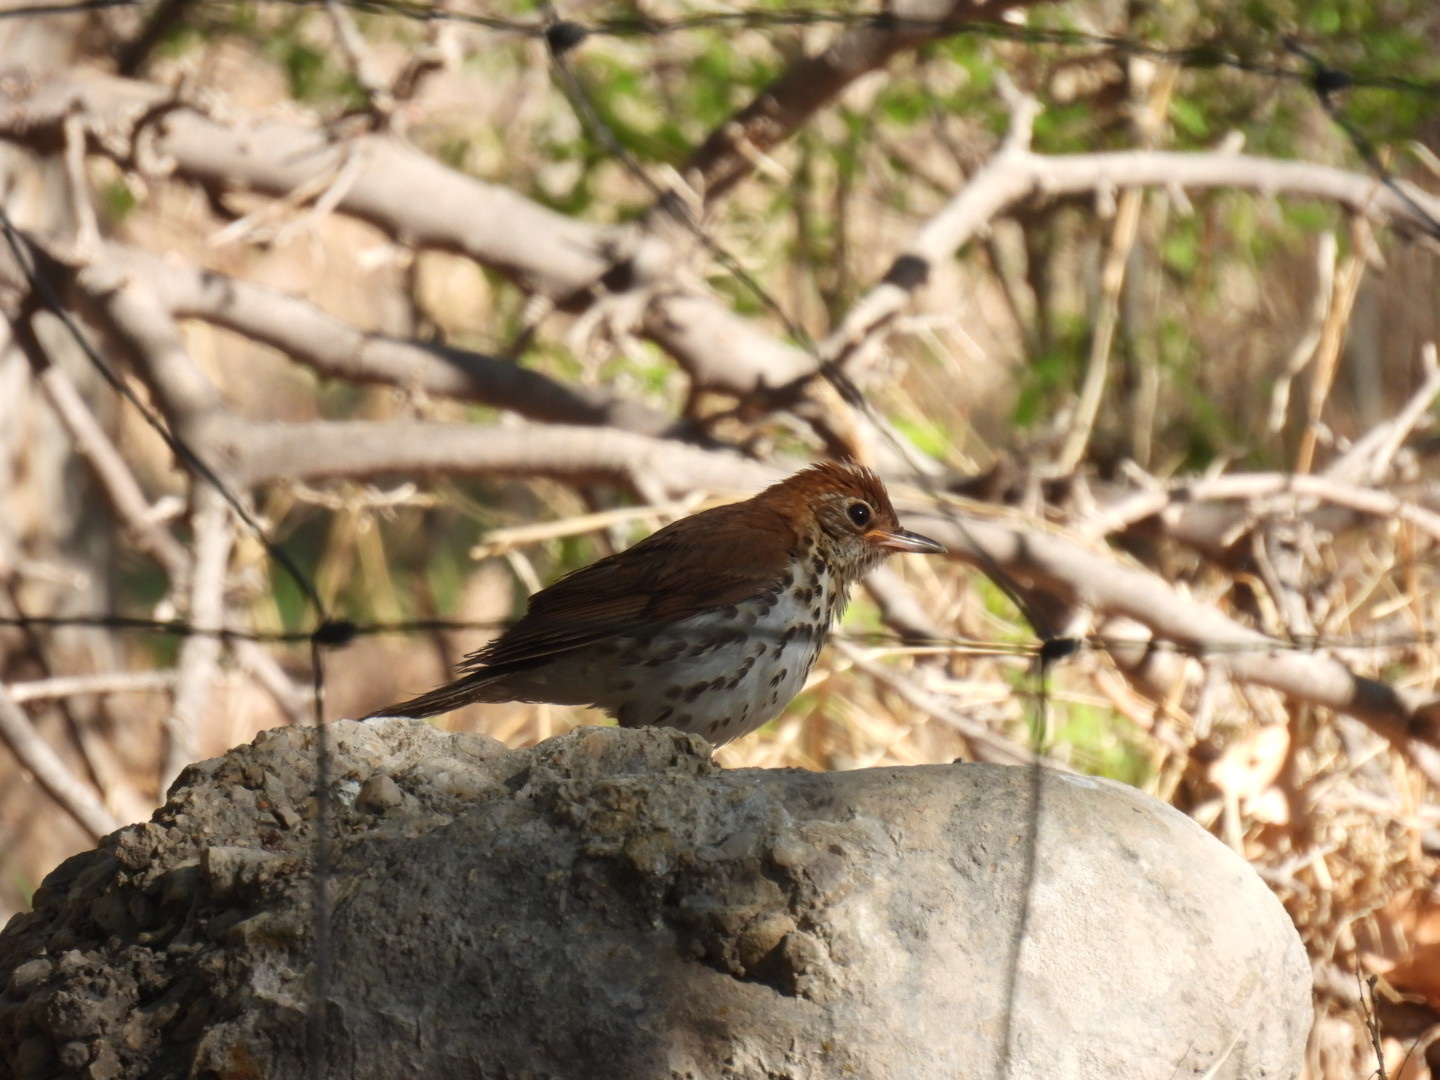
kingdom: Animalia
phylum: Chordata
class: Aves
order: Passeriformes
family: Turdidae
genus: Hylocichla
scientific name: Hylocichla mustelina
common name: Wood thrush
